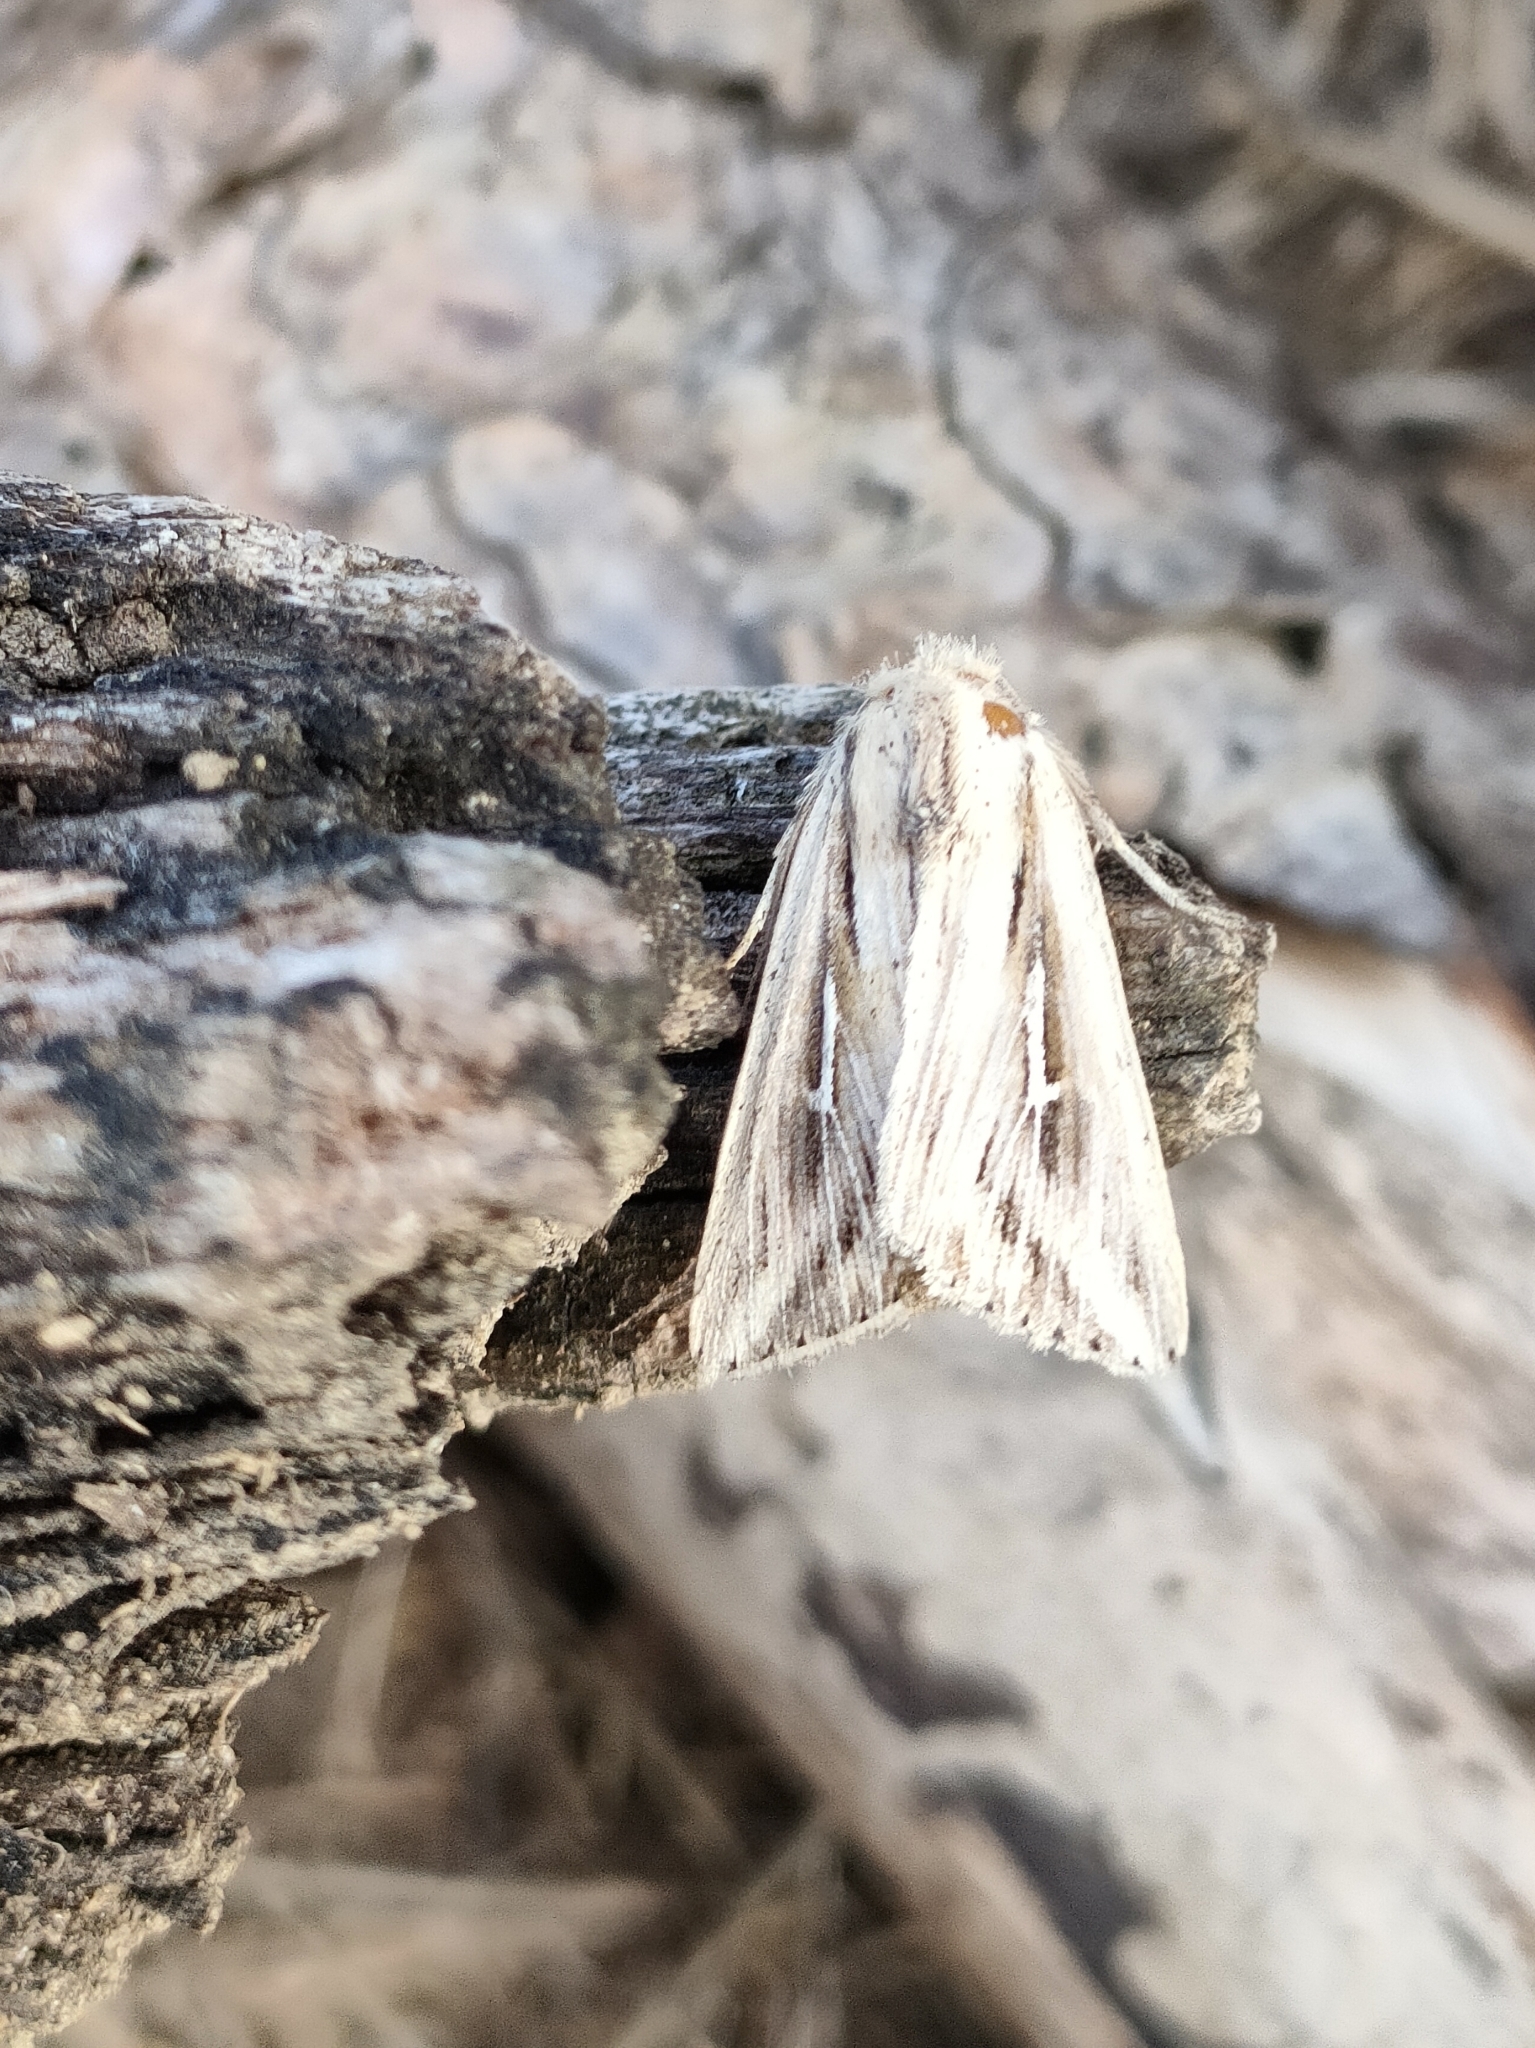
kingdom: Animalia
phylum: Arthropoda
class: Insecta
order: Lepidoptera
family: Noctuidae
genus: Mythimna
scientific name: Mythimna l-album
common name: L-album wainscot
